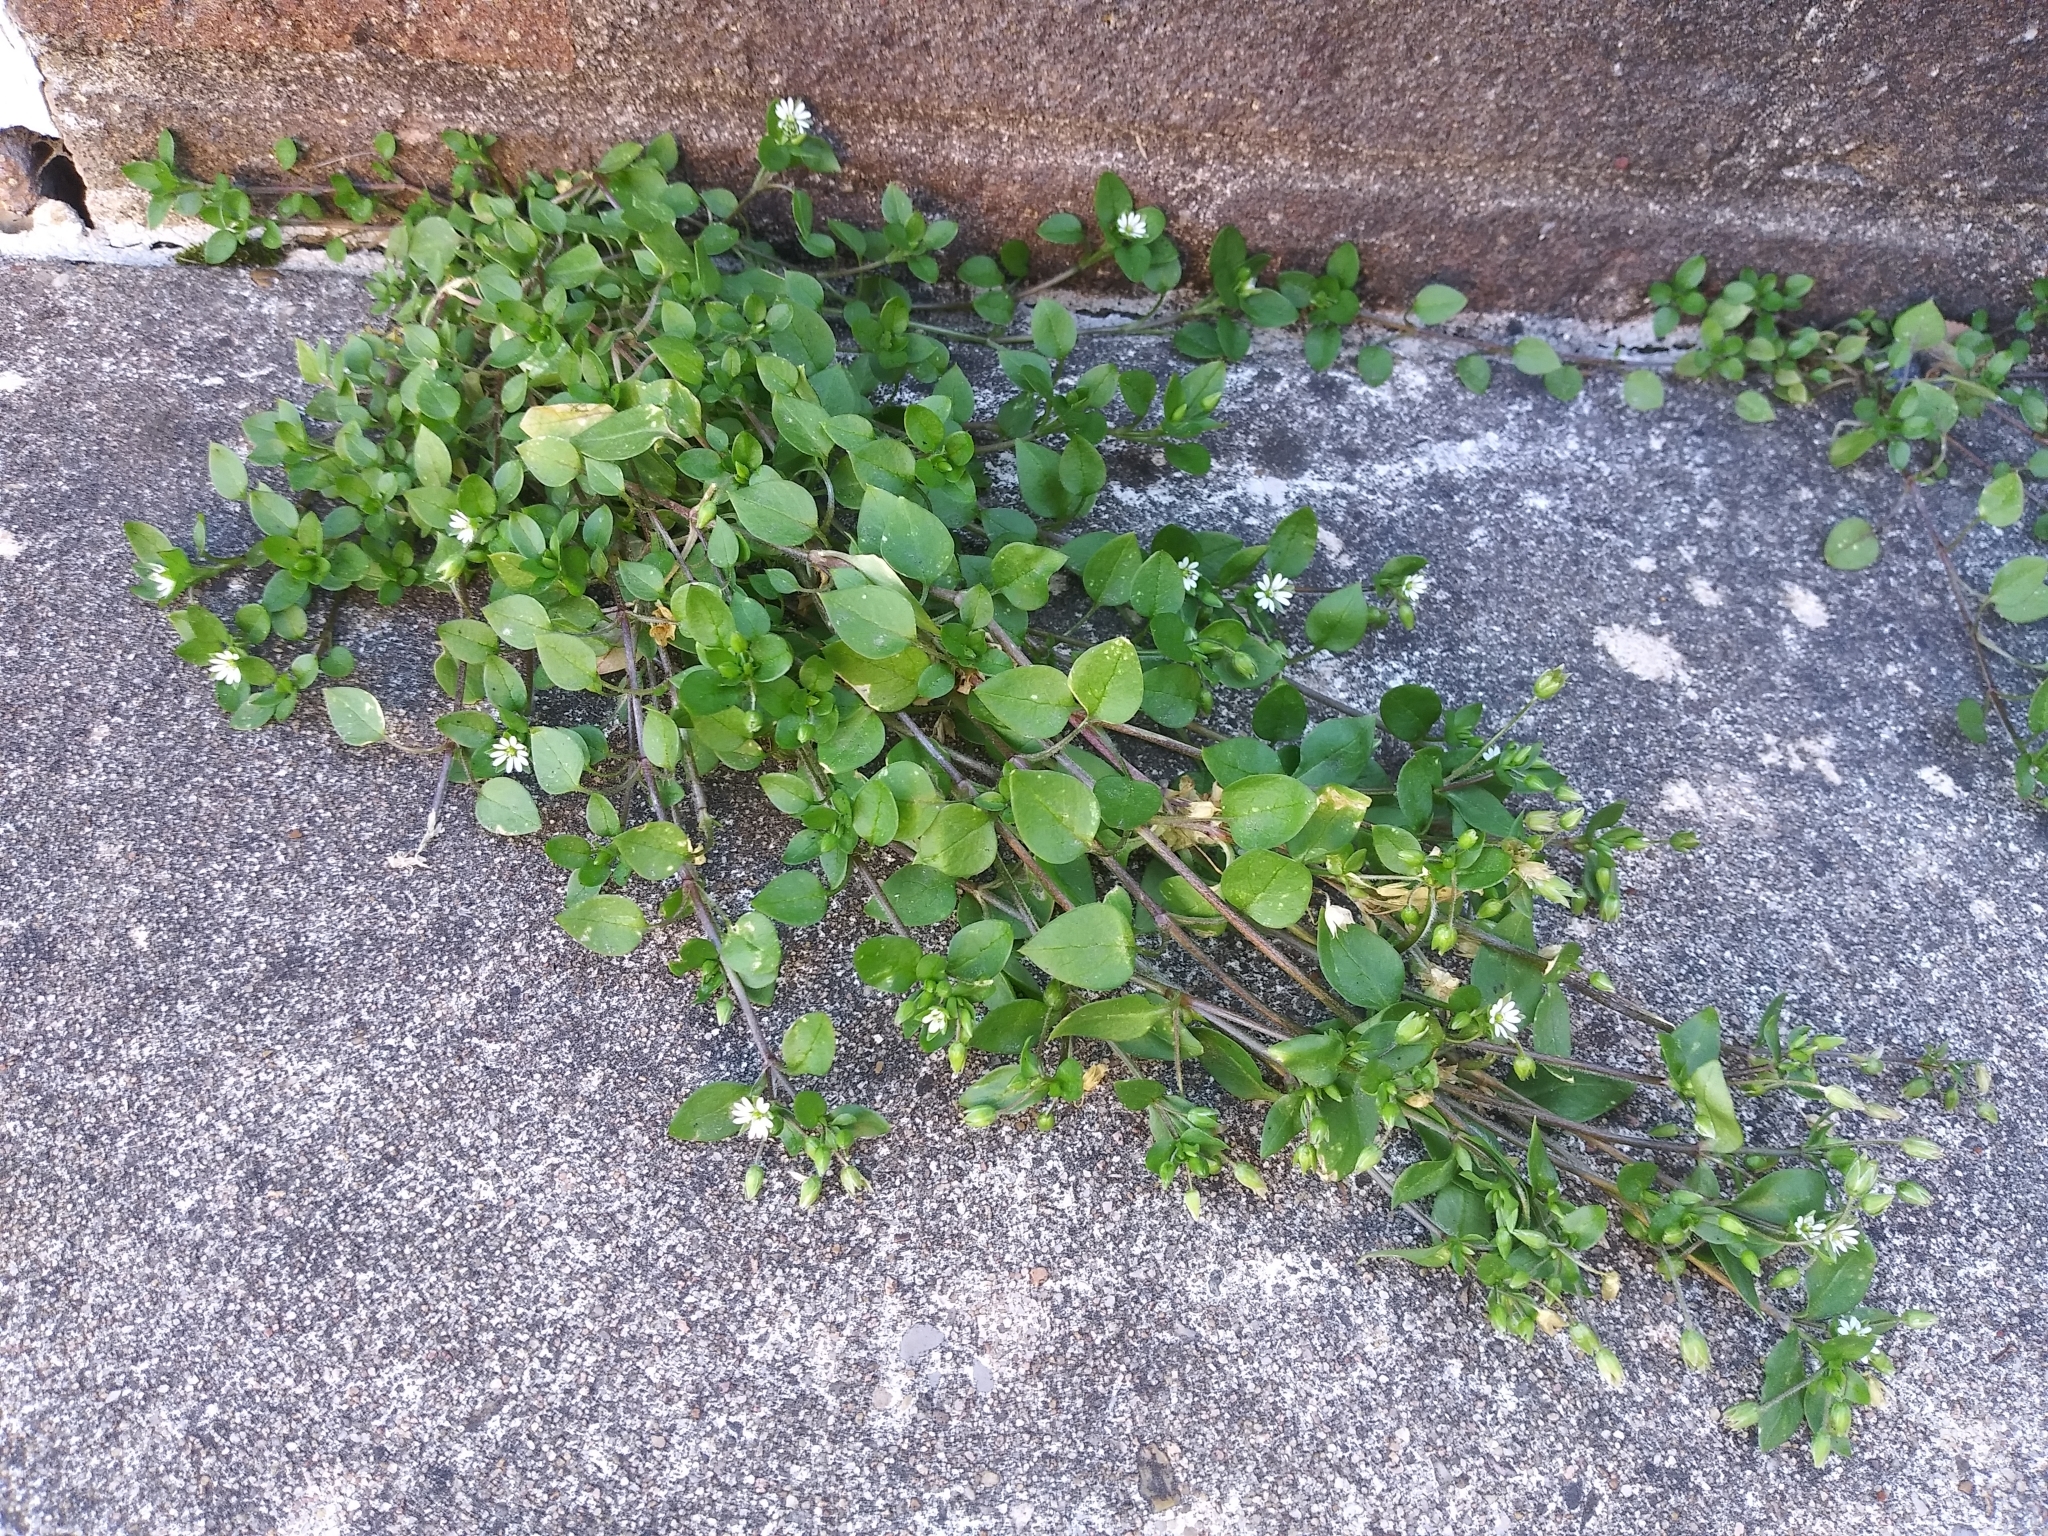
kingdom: Plantae
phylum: Tracheophyta
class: Magnoliopsida
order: Caryophyllales
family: Caryophyllaceae
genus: Stellaria
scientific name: Stellaria media
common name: Common chickweed
